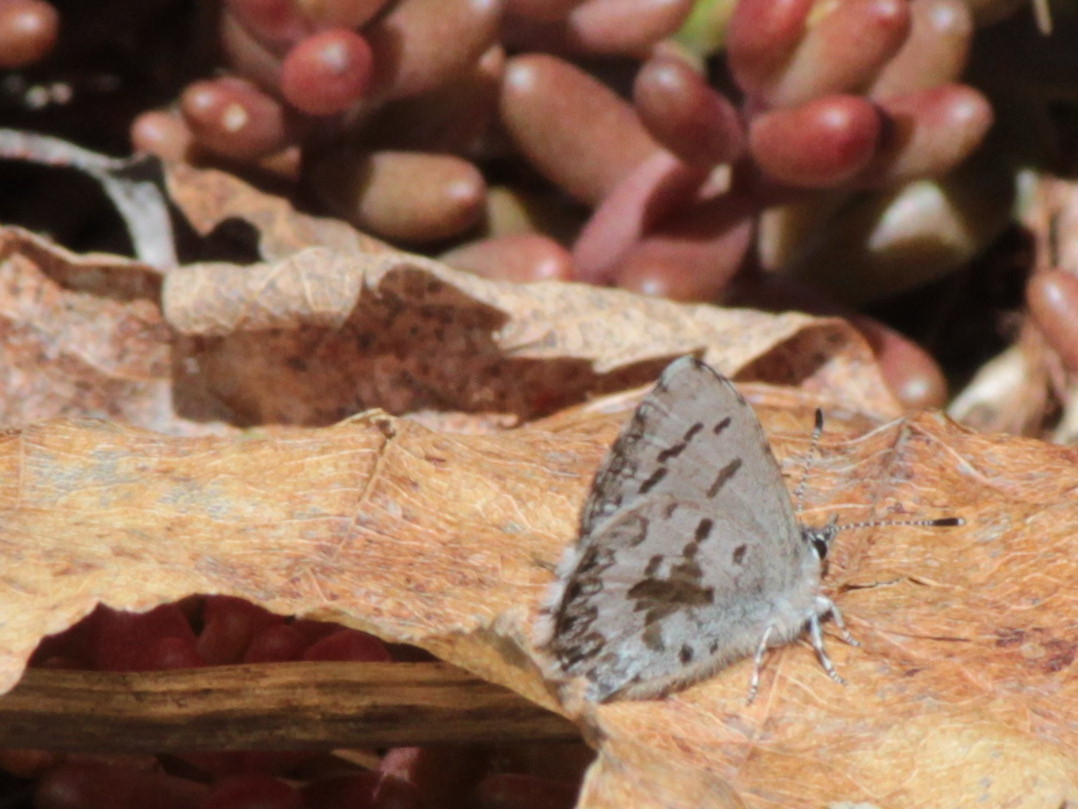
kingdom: Animalia
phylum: Arthropoda
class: Insecta
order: Lepidoptera
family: Lycaenidae
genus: Celastrina
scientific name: Celastrina lucia
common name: Lucia azure
